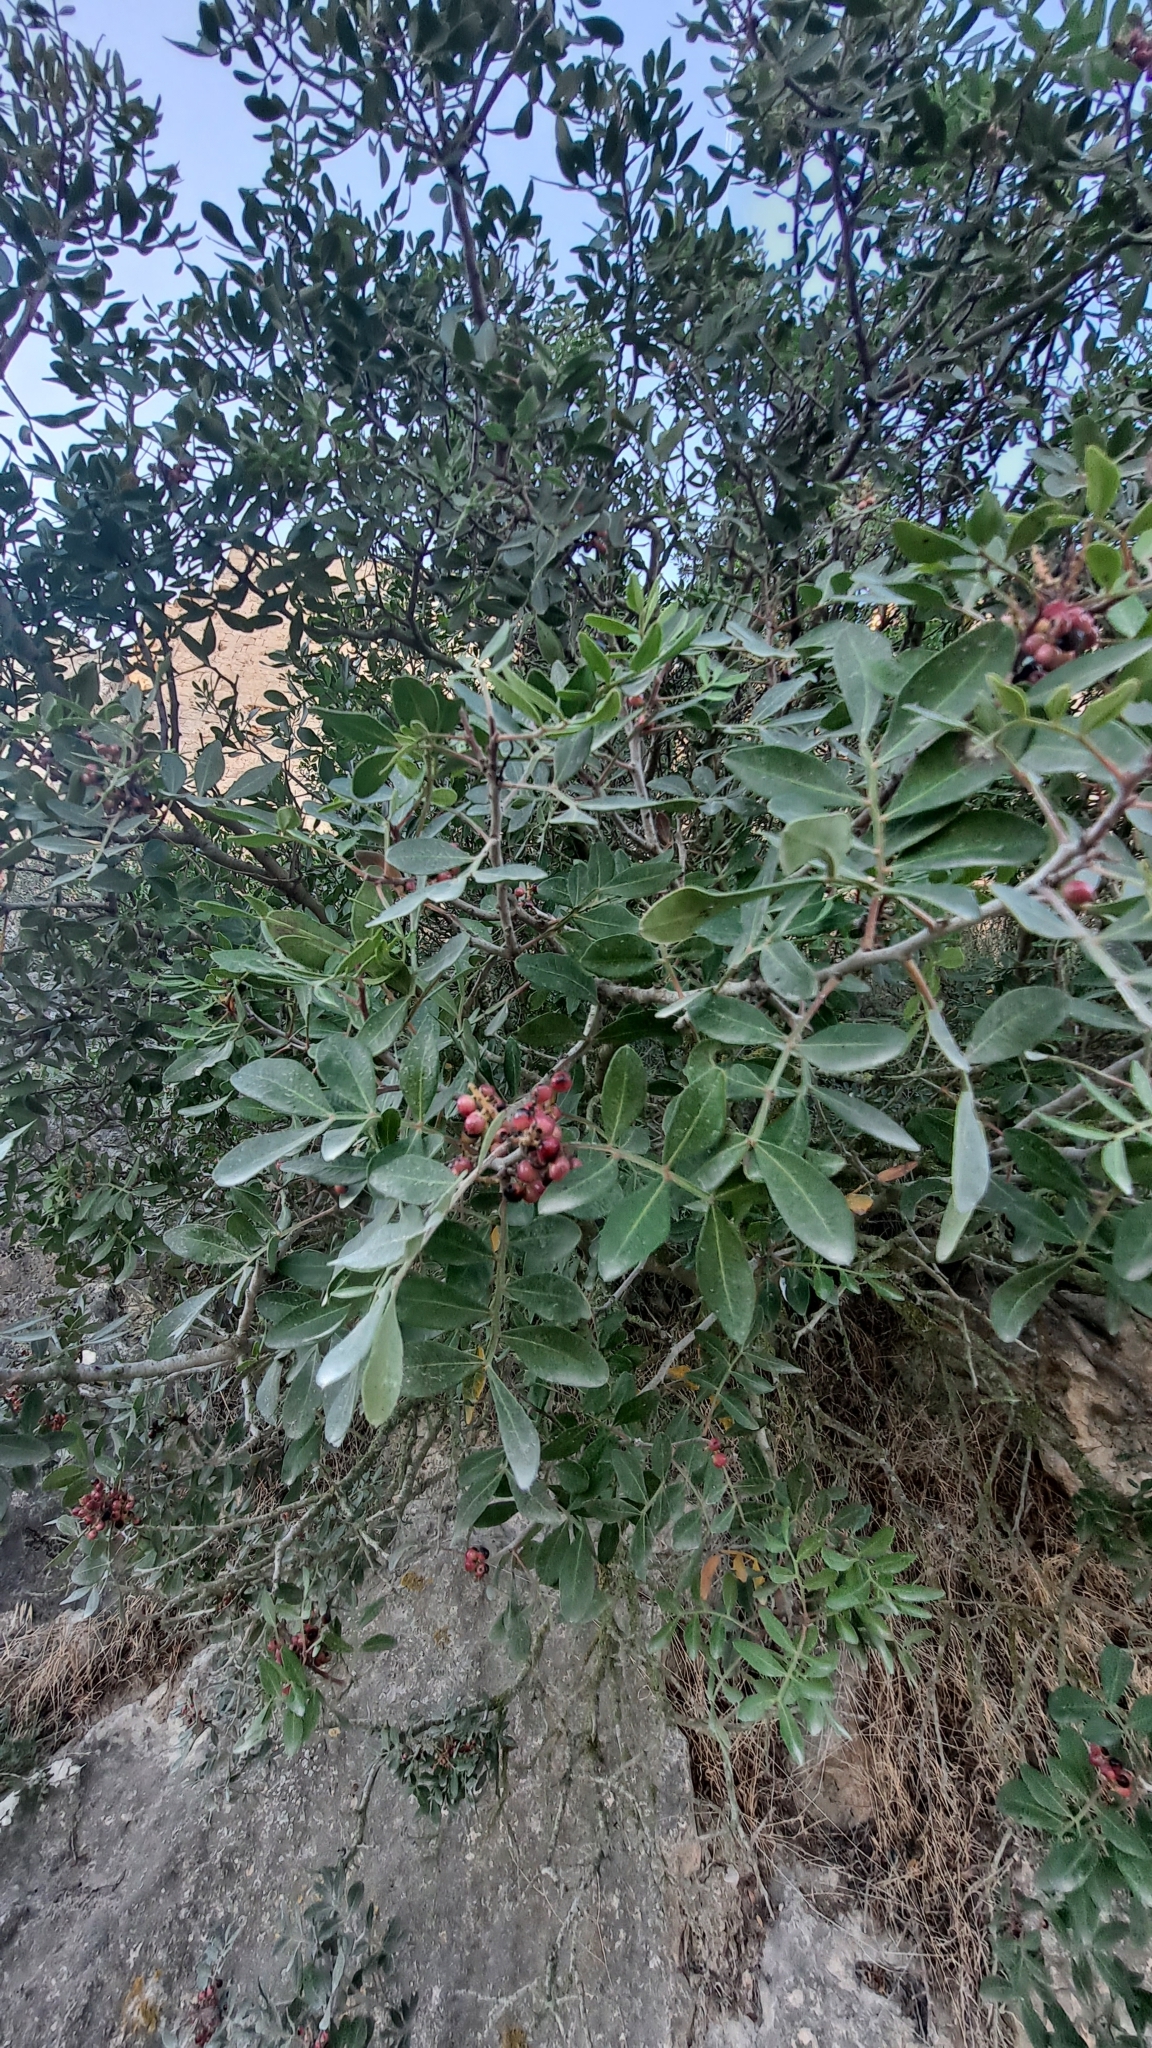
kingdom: Plantae
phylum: Tracheophyta
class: Magnoliopsida
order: Sapindales
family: Anacardiaceae
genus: Pistacia
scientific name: Pistacia lentiscus
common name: Lentisk
